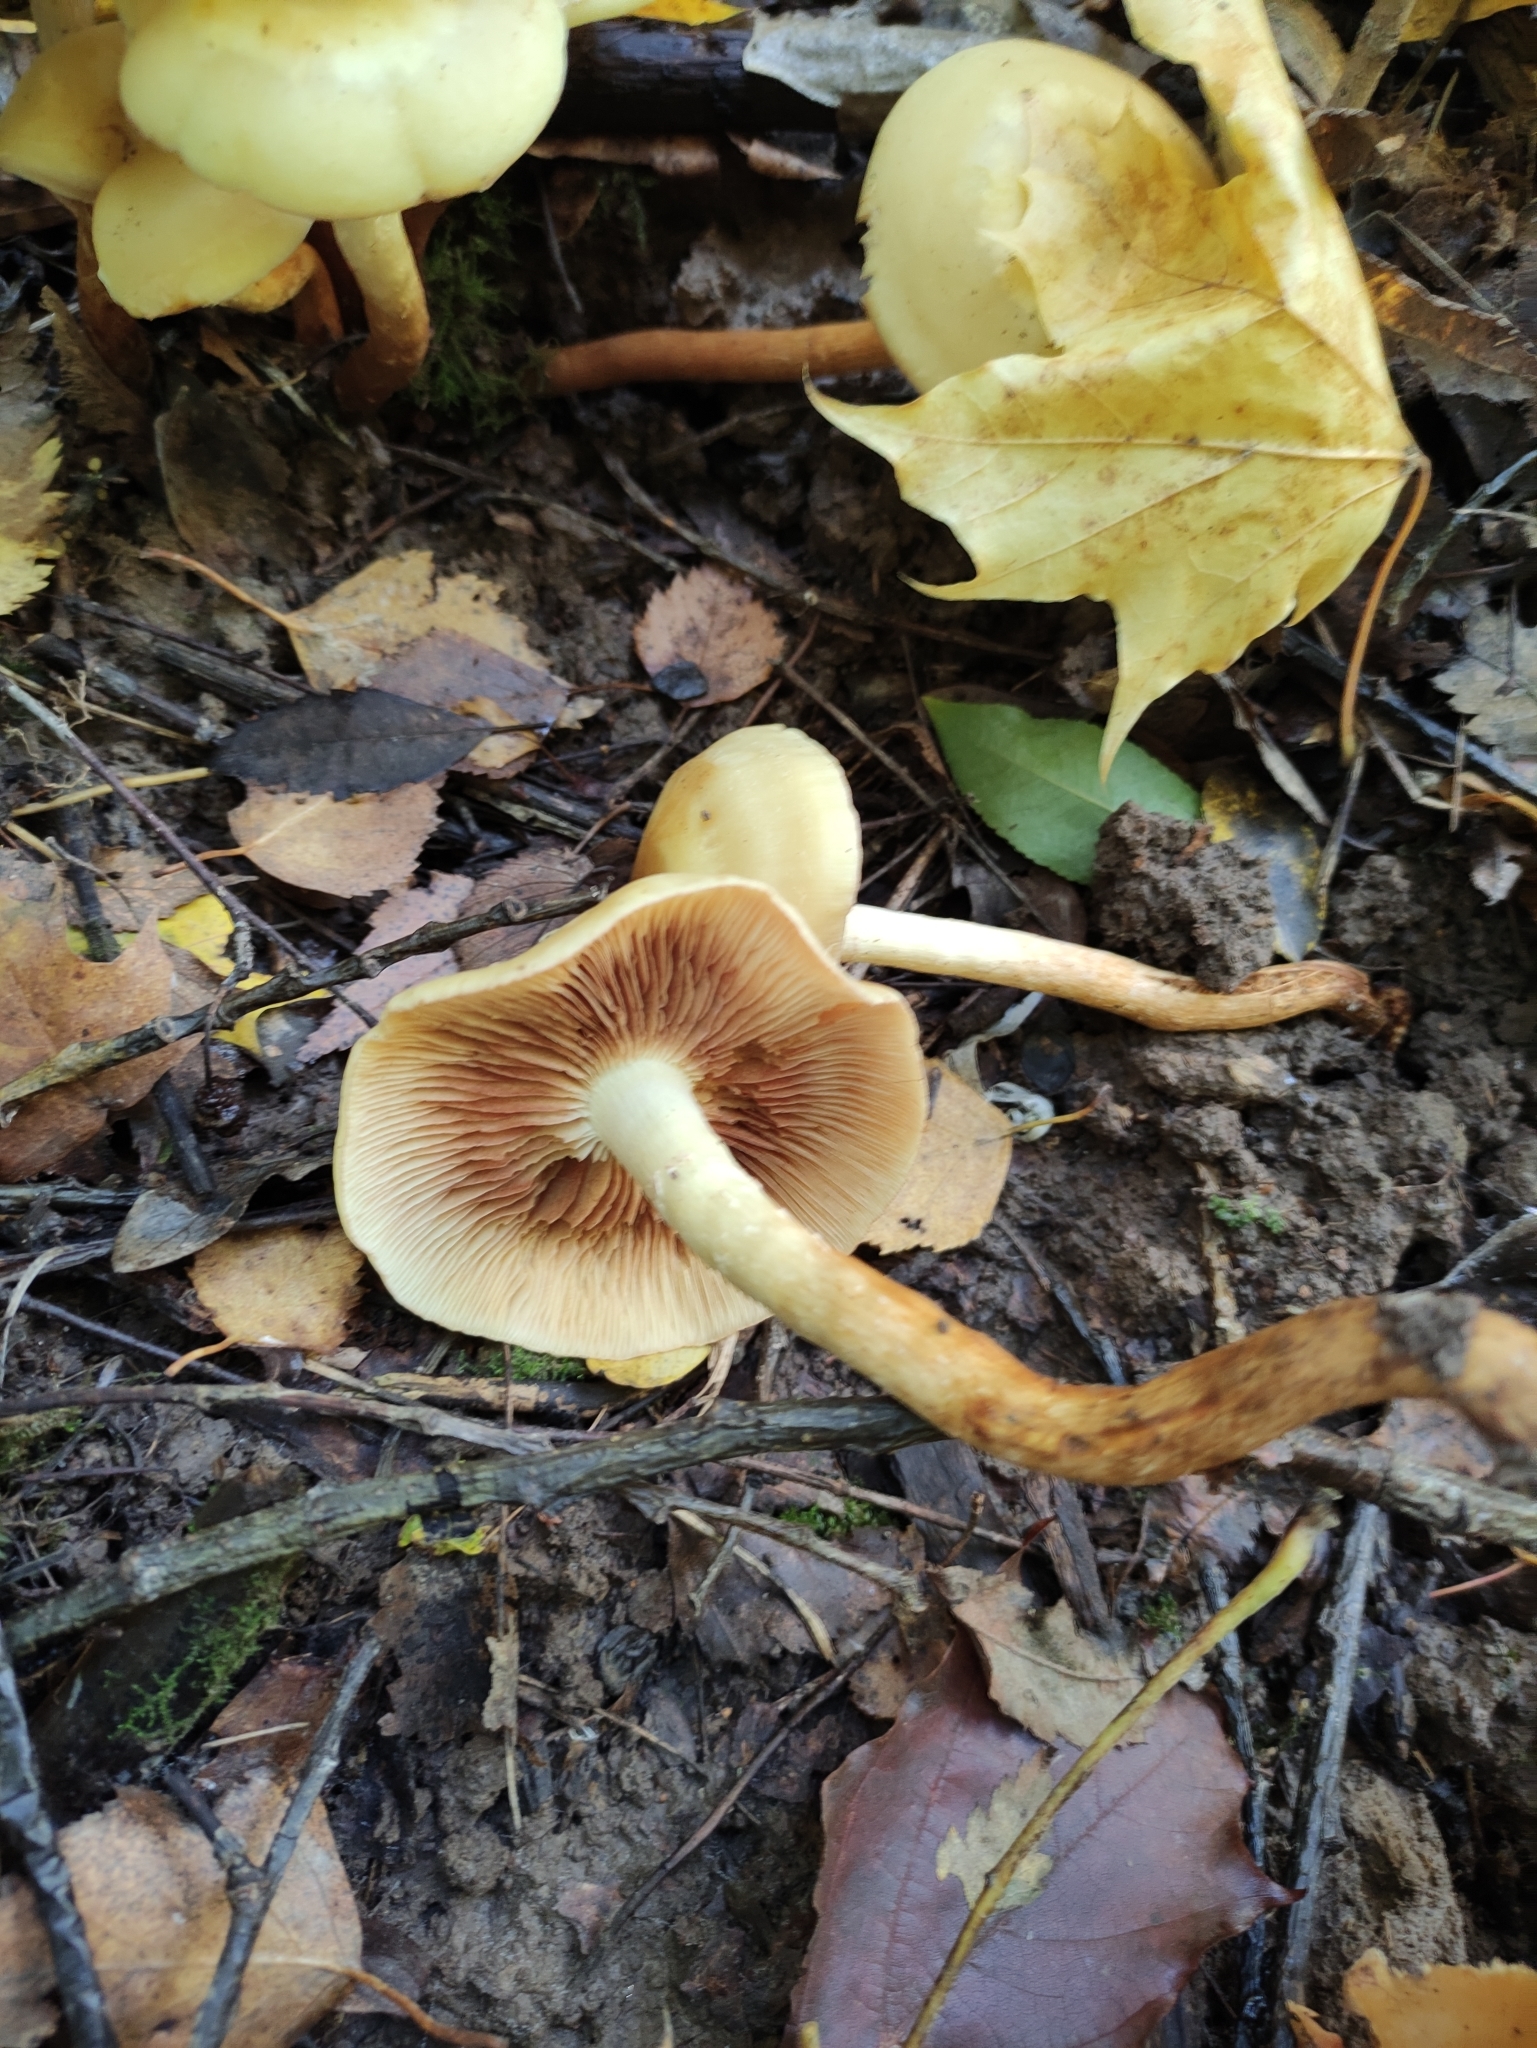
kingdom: Fungi
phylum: Basidiomycota
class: Agaricomycetes
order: Agaricales
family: Hymenogastraceae
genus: Flammula
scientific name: Flammula alnicola
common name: Alder scalycap
